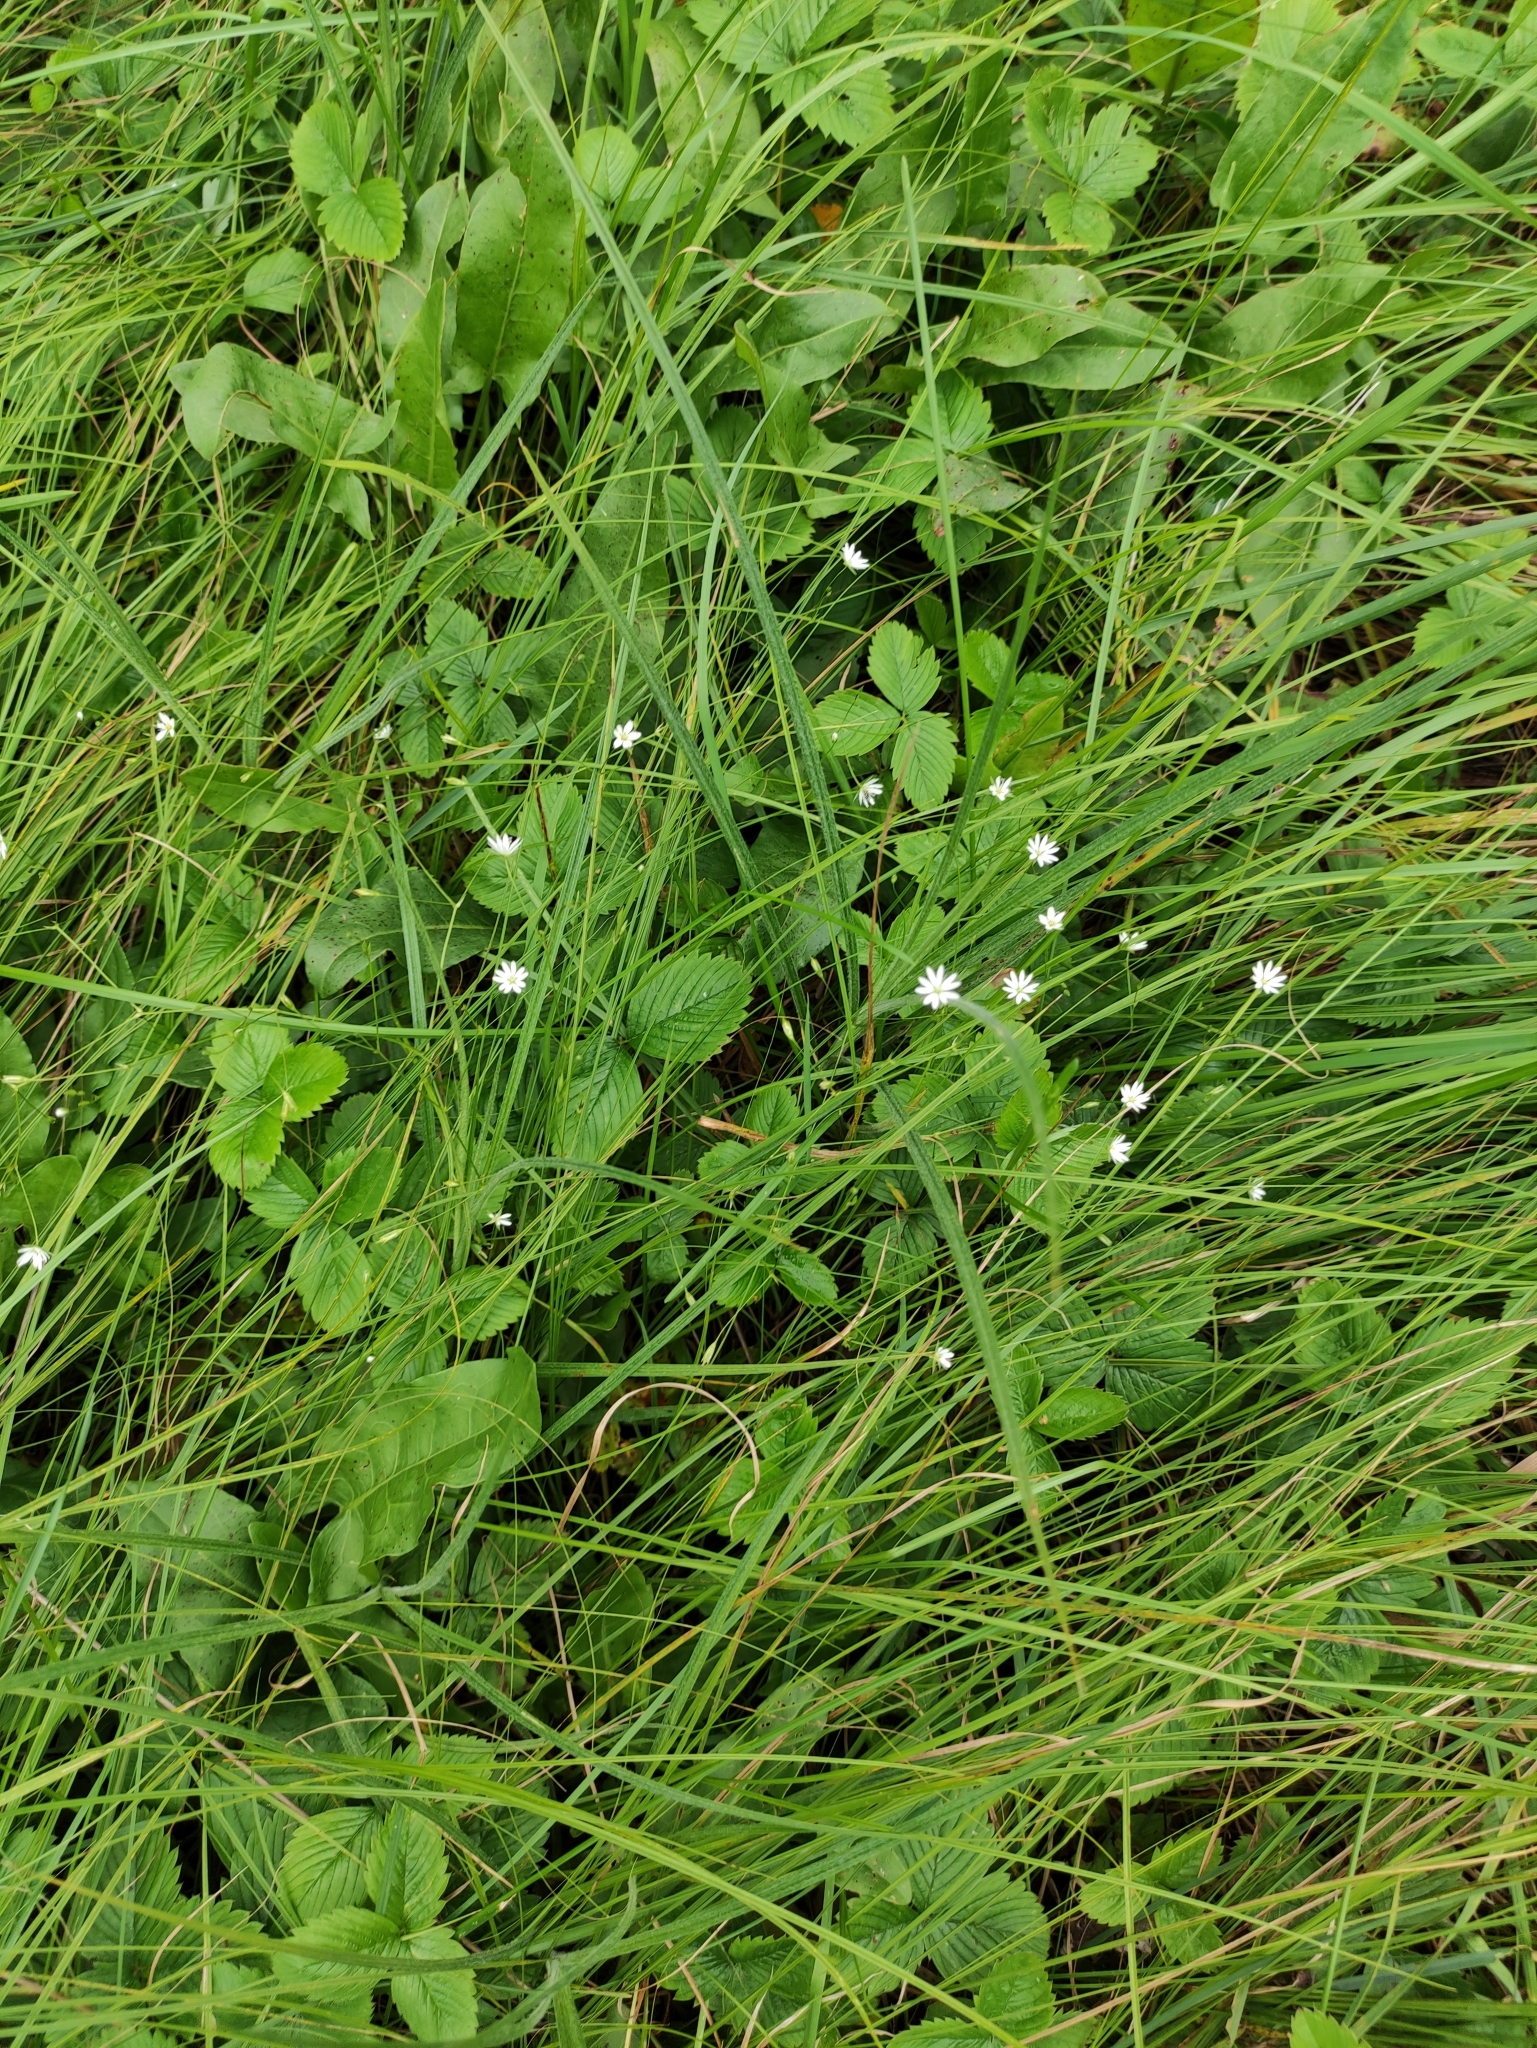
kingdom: Plantae
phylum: Tracheophyta
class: Magnoliopsida
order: Caryophyllales
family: Caryophyllaceae
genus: Stellaria
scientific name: Stellaria graminea
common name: Grass-like starwort
